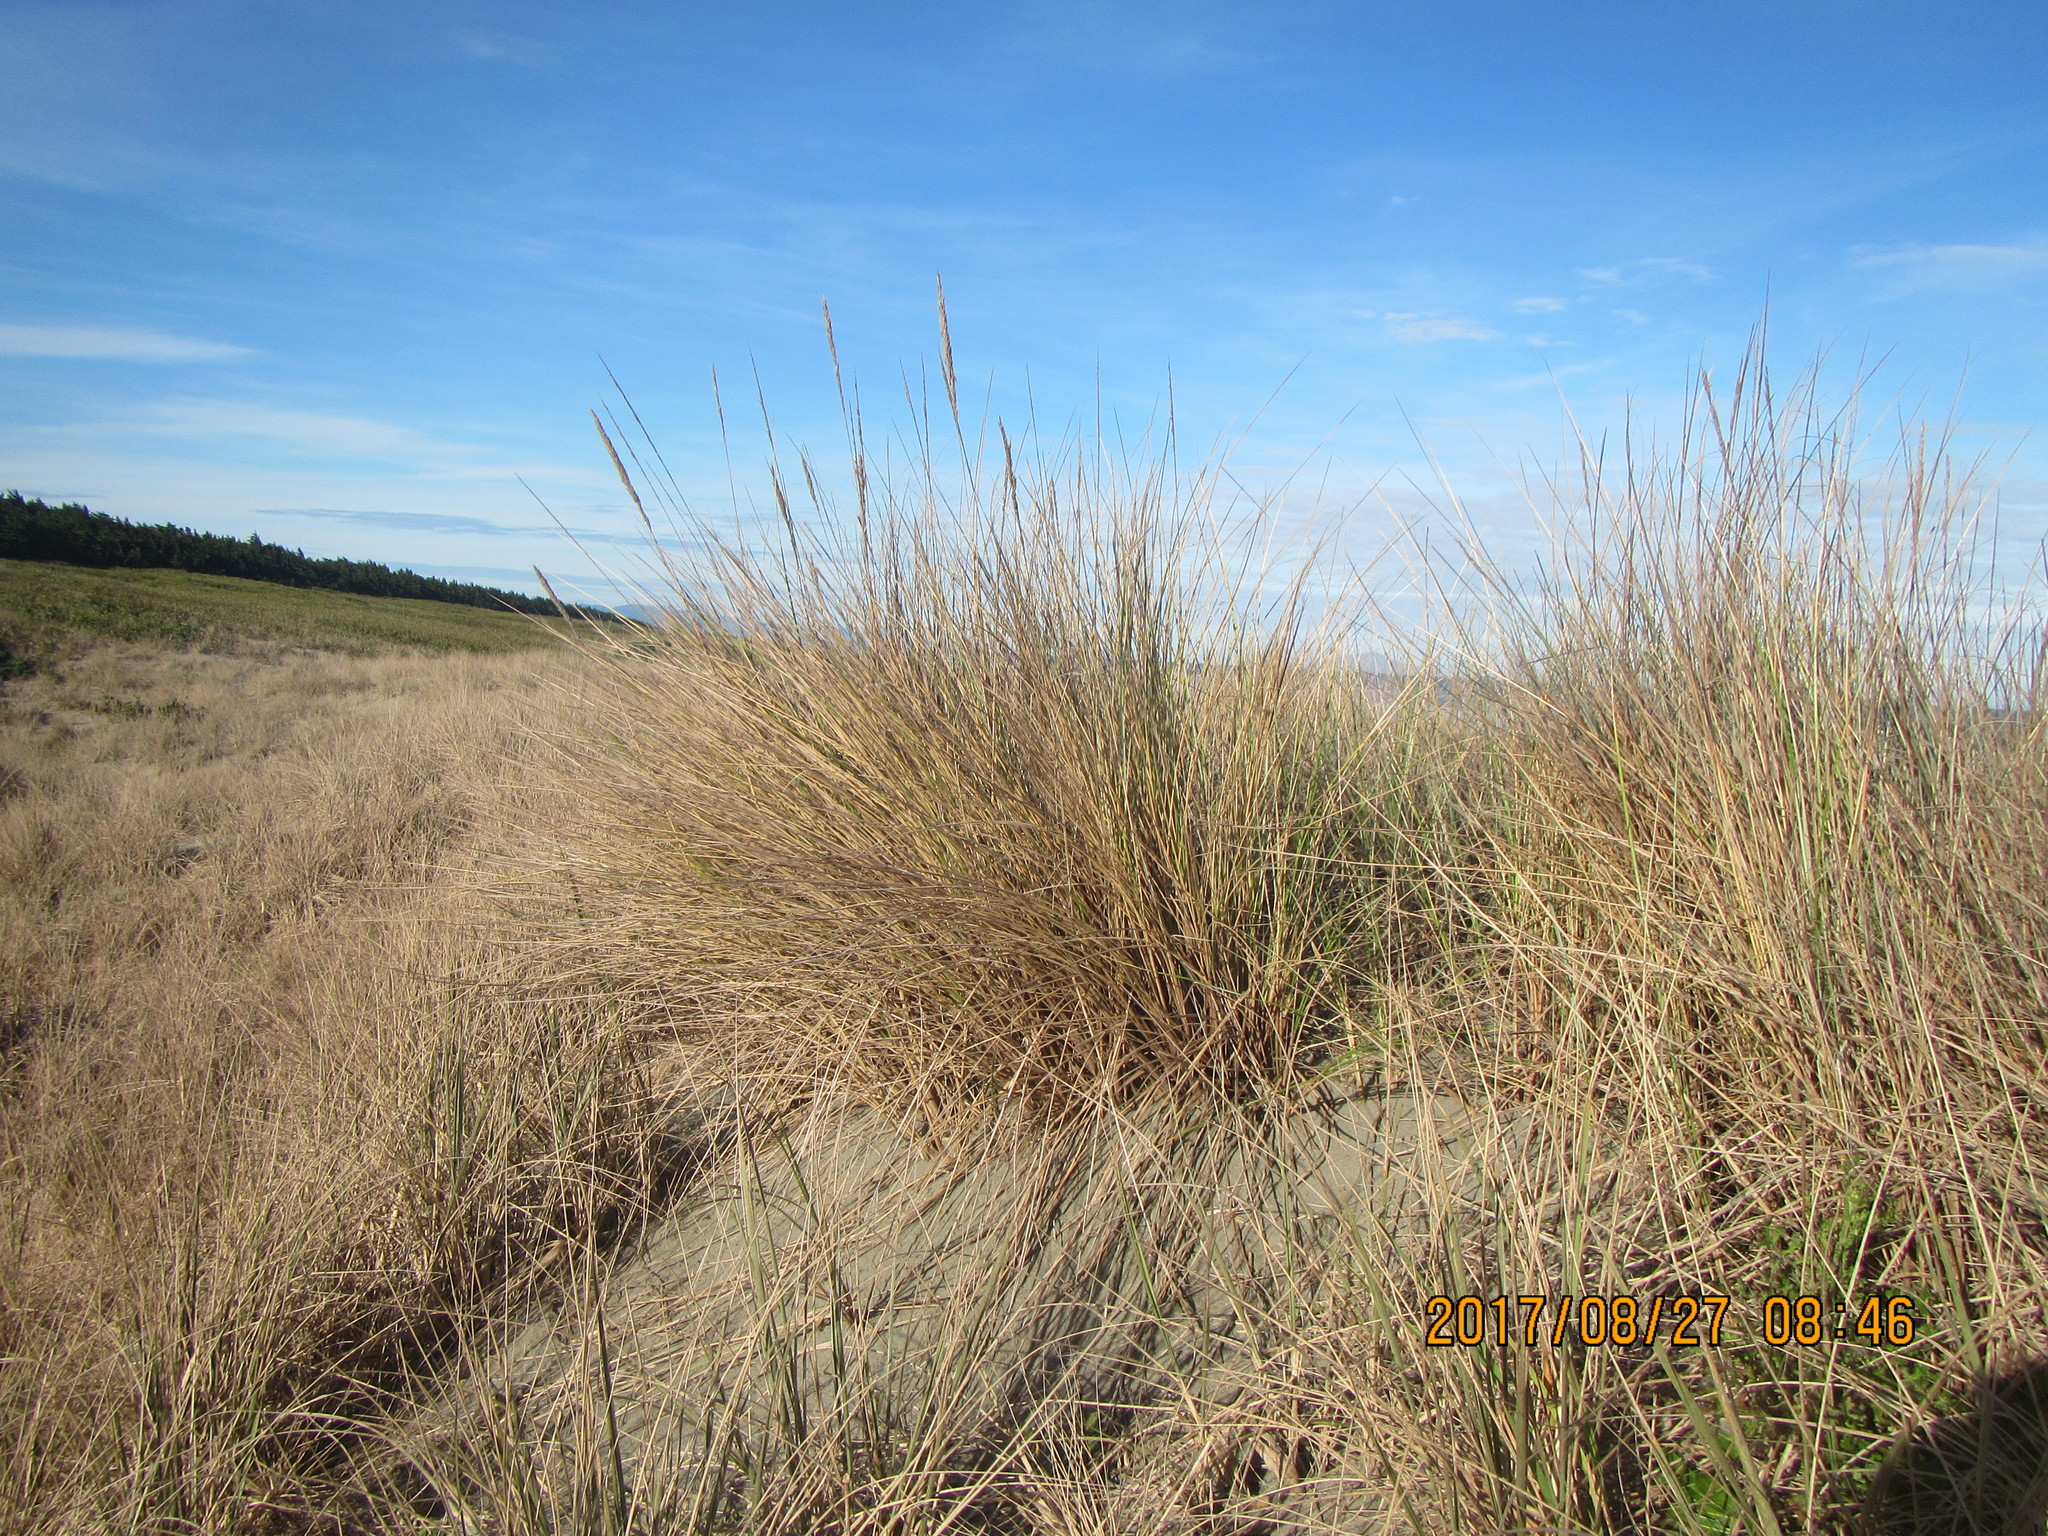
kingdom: Plantae
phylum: Tracheophyta
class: Liliopsida
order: Poales
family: Poaceae
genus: Calamagrostis
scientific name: Calamagrostis arenaria
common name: European beachgrass
